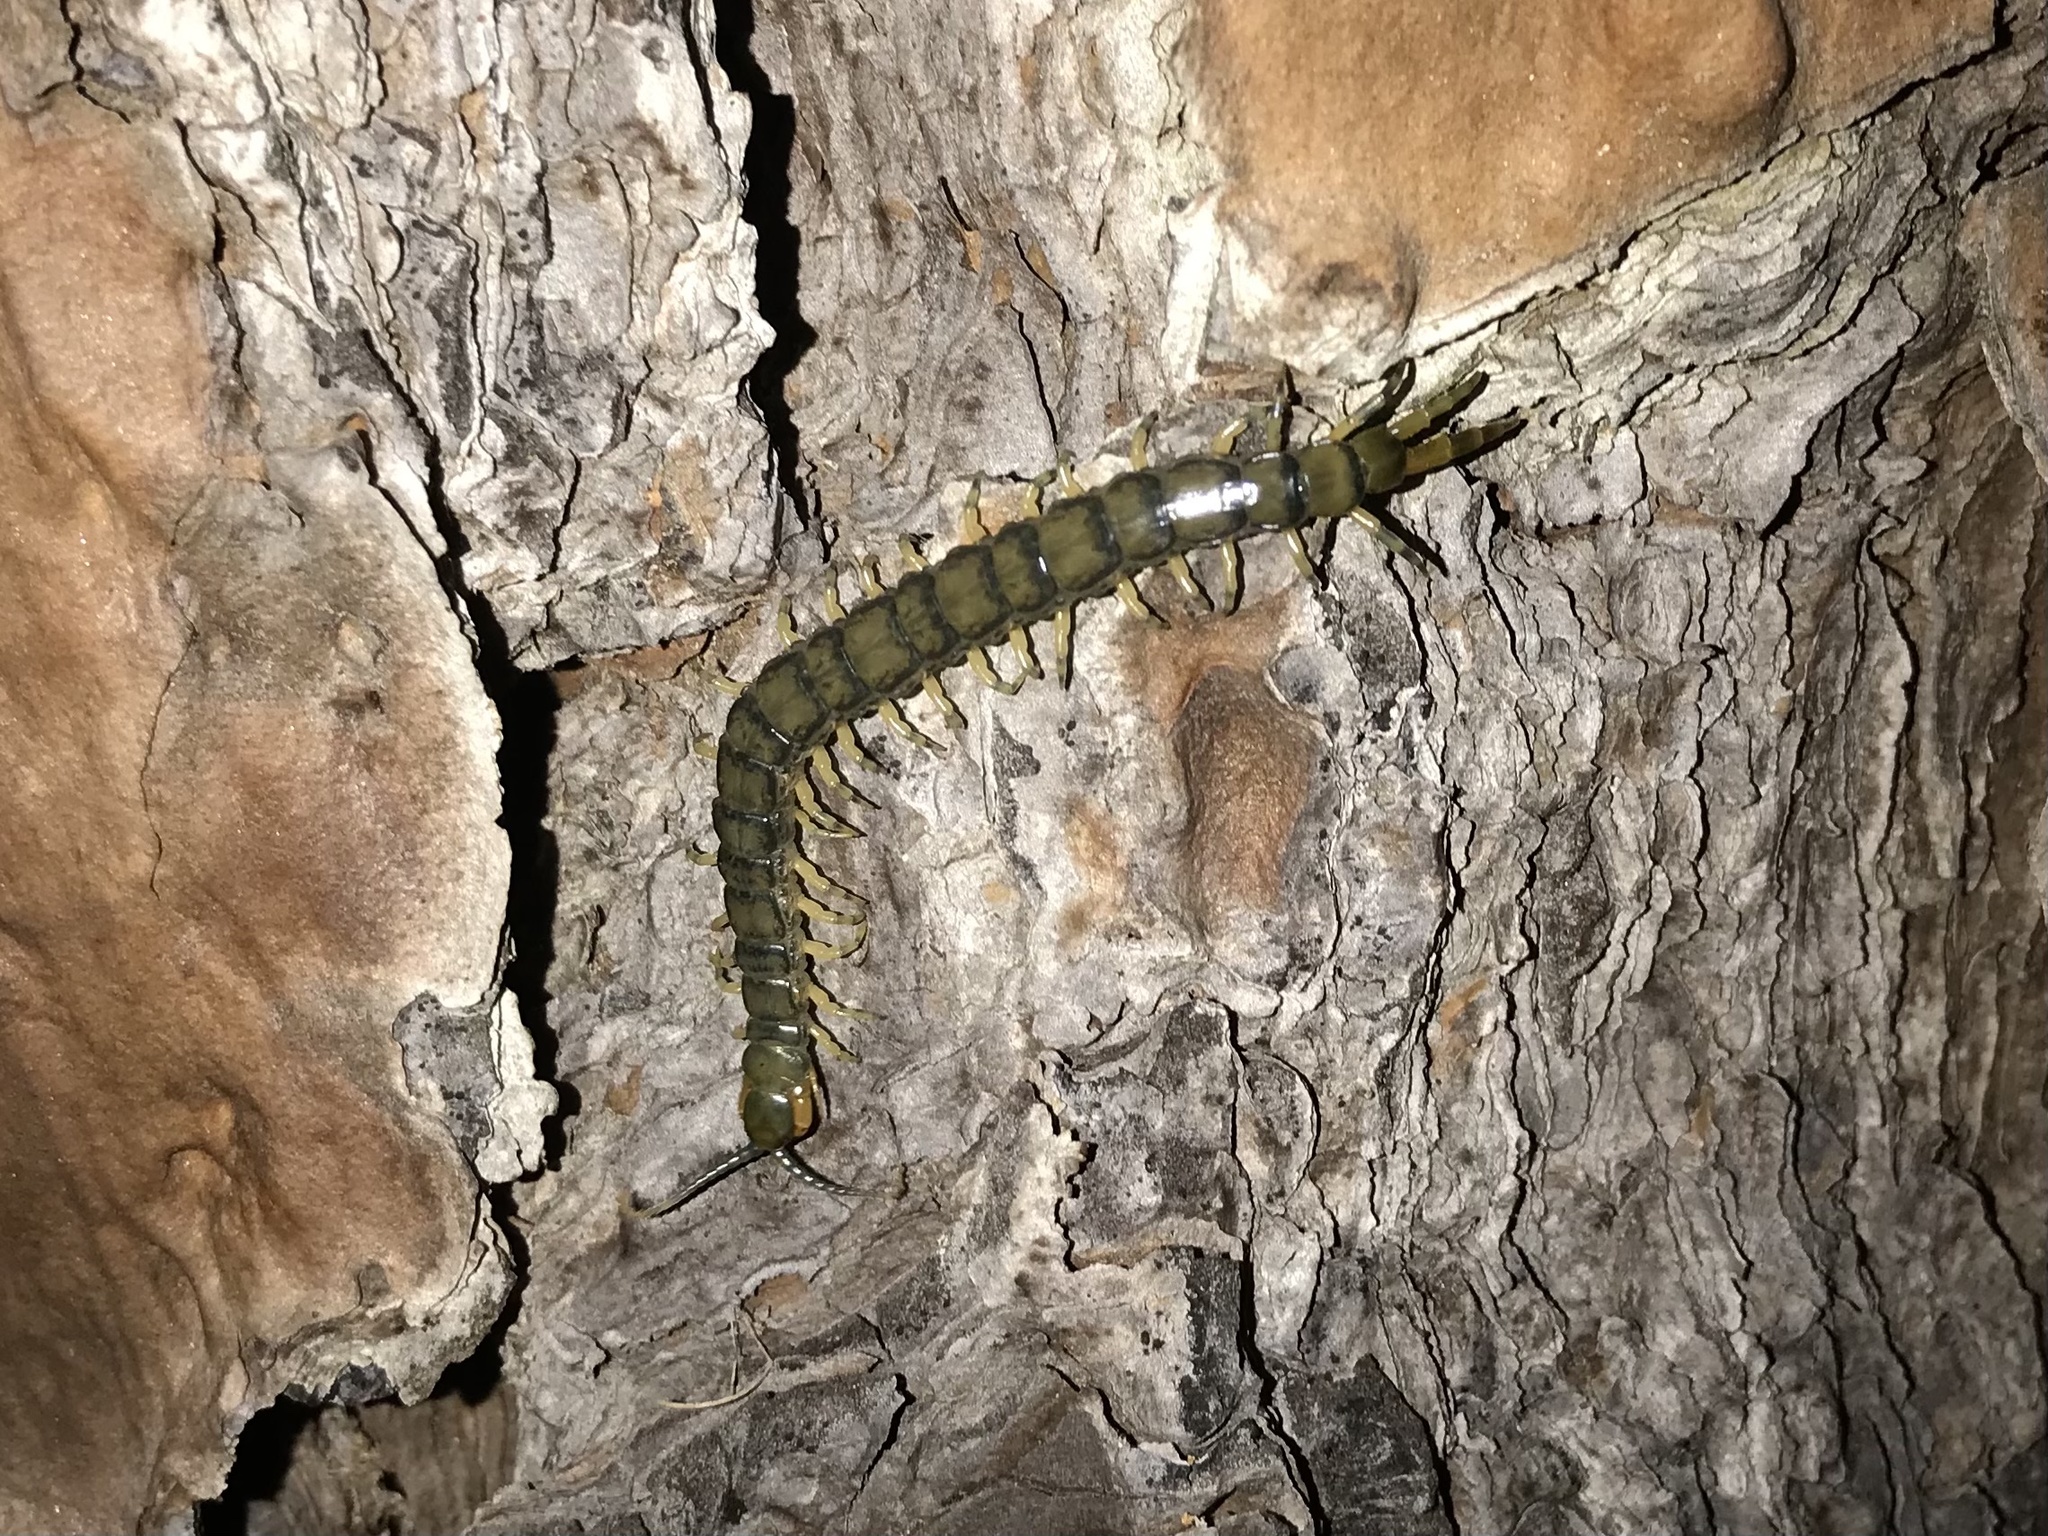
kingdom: Animalia
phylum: Arthropoda
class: Chilopoda
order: Scolopendromorpha
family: Scolopendridae
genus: Hemiscolopendra
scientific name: Hemiscolopendra marginata
